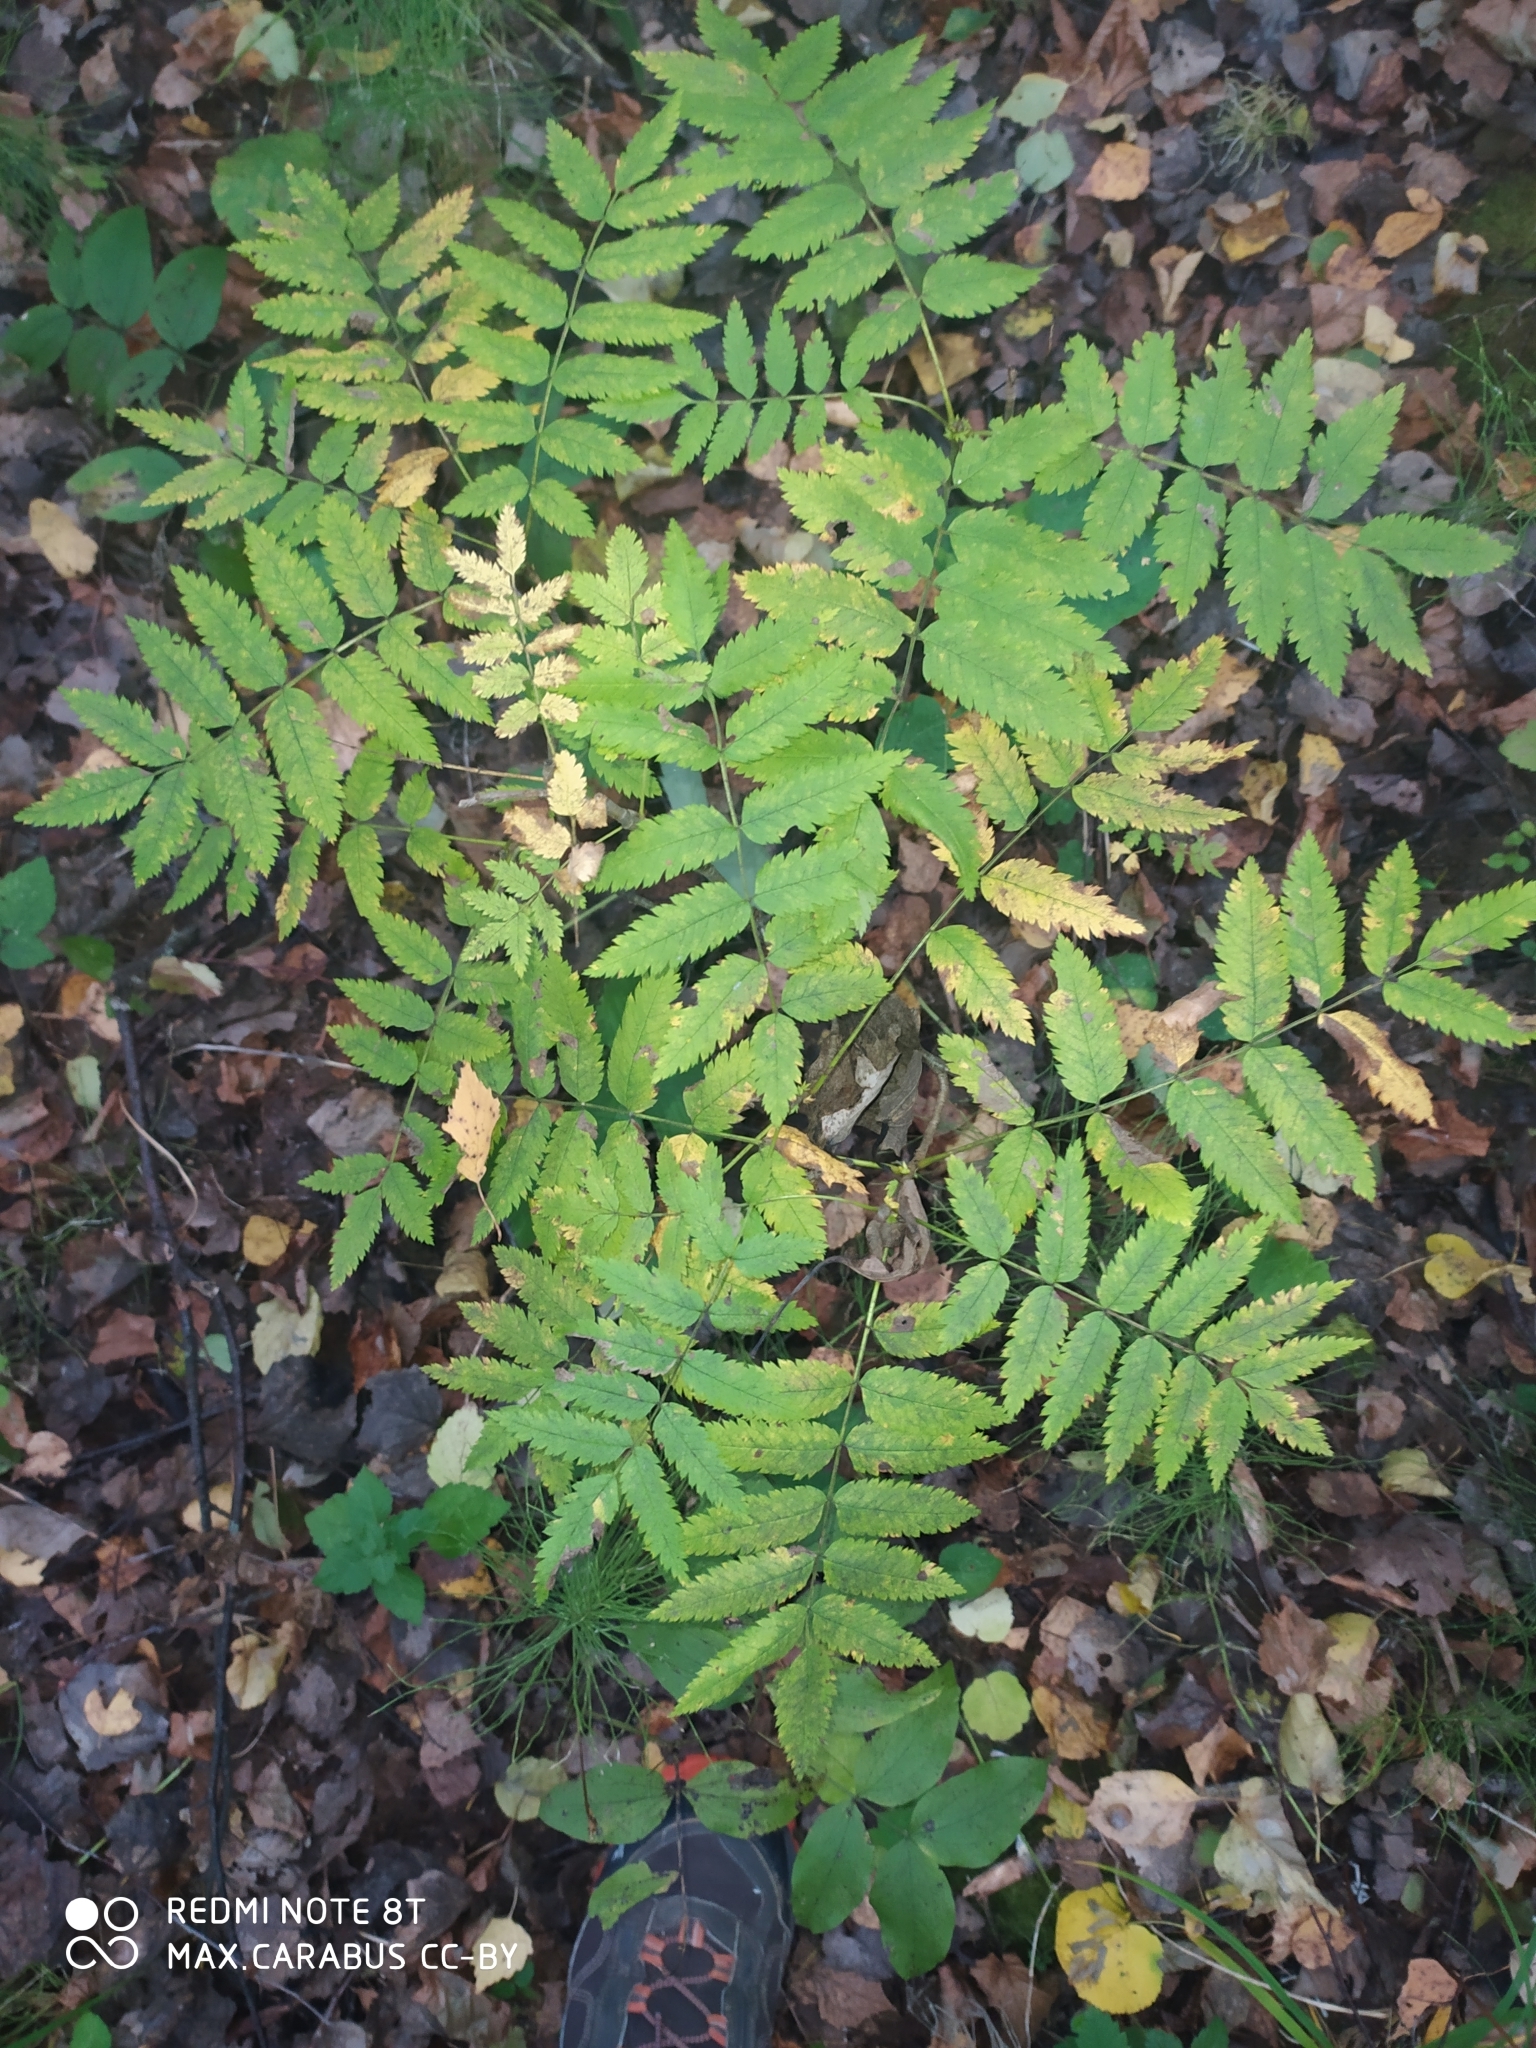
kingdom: Plantae
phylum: Tracheophyta
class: Magnoliopsida
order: Rosales
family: Rosaceae
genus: Sorbus
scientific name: Sorbus aucuparia
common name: Rowan
